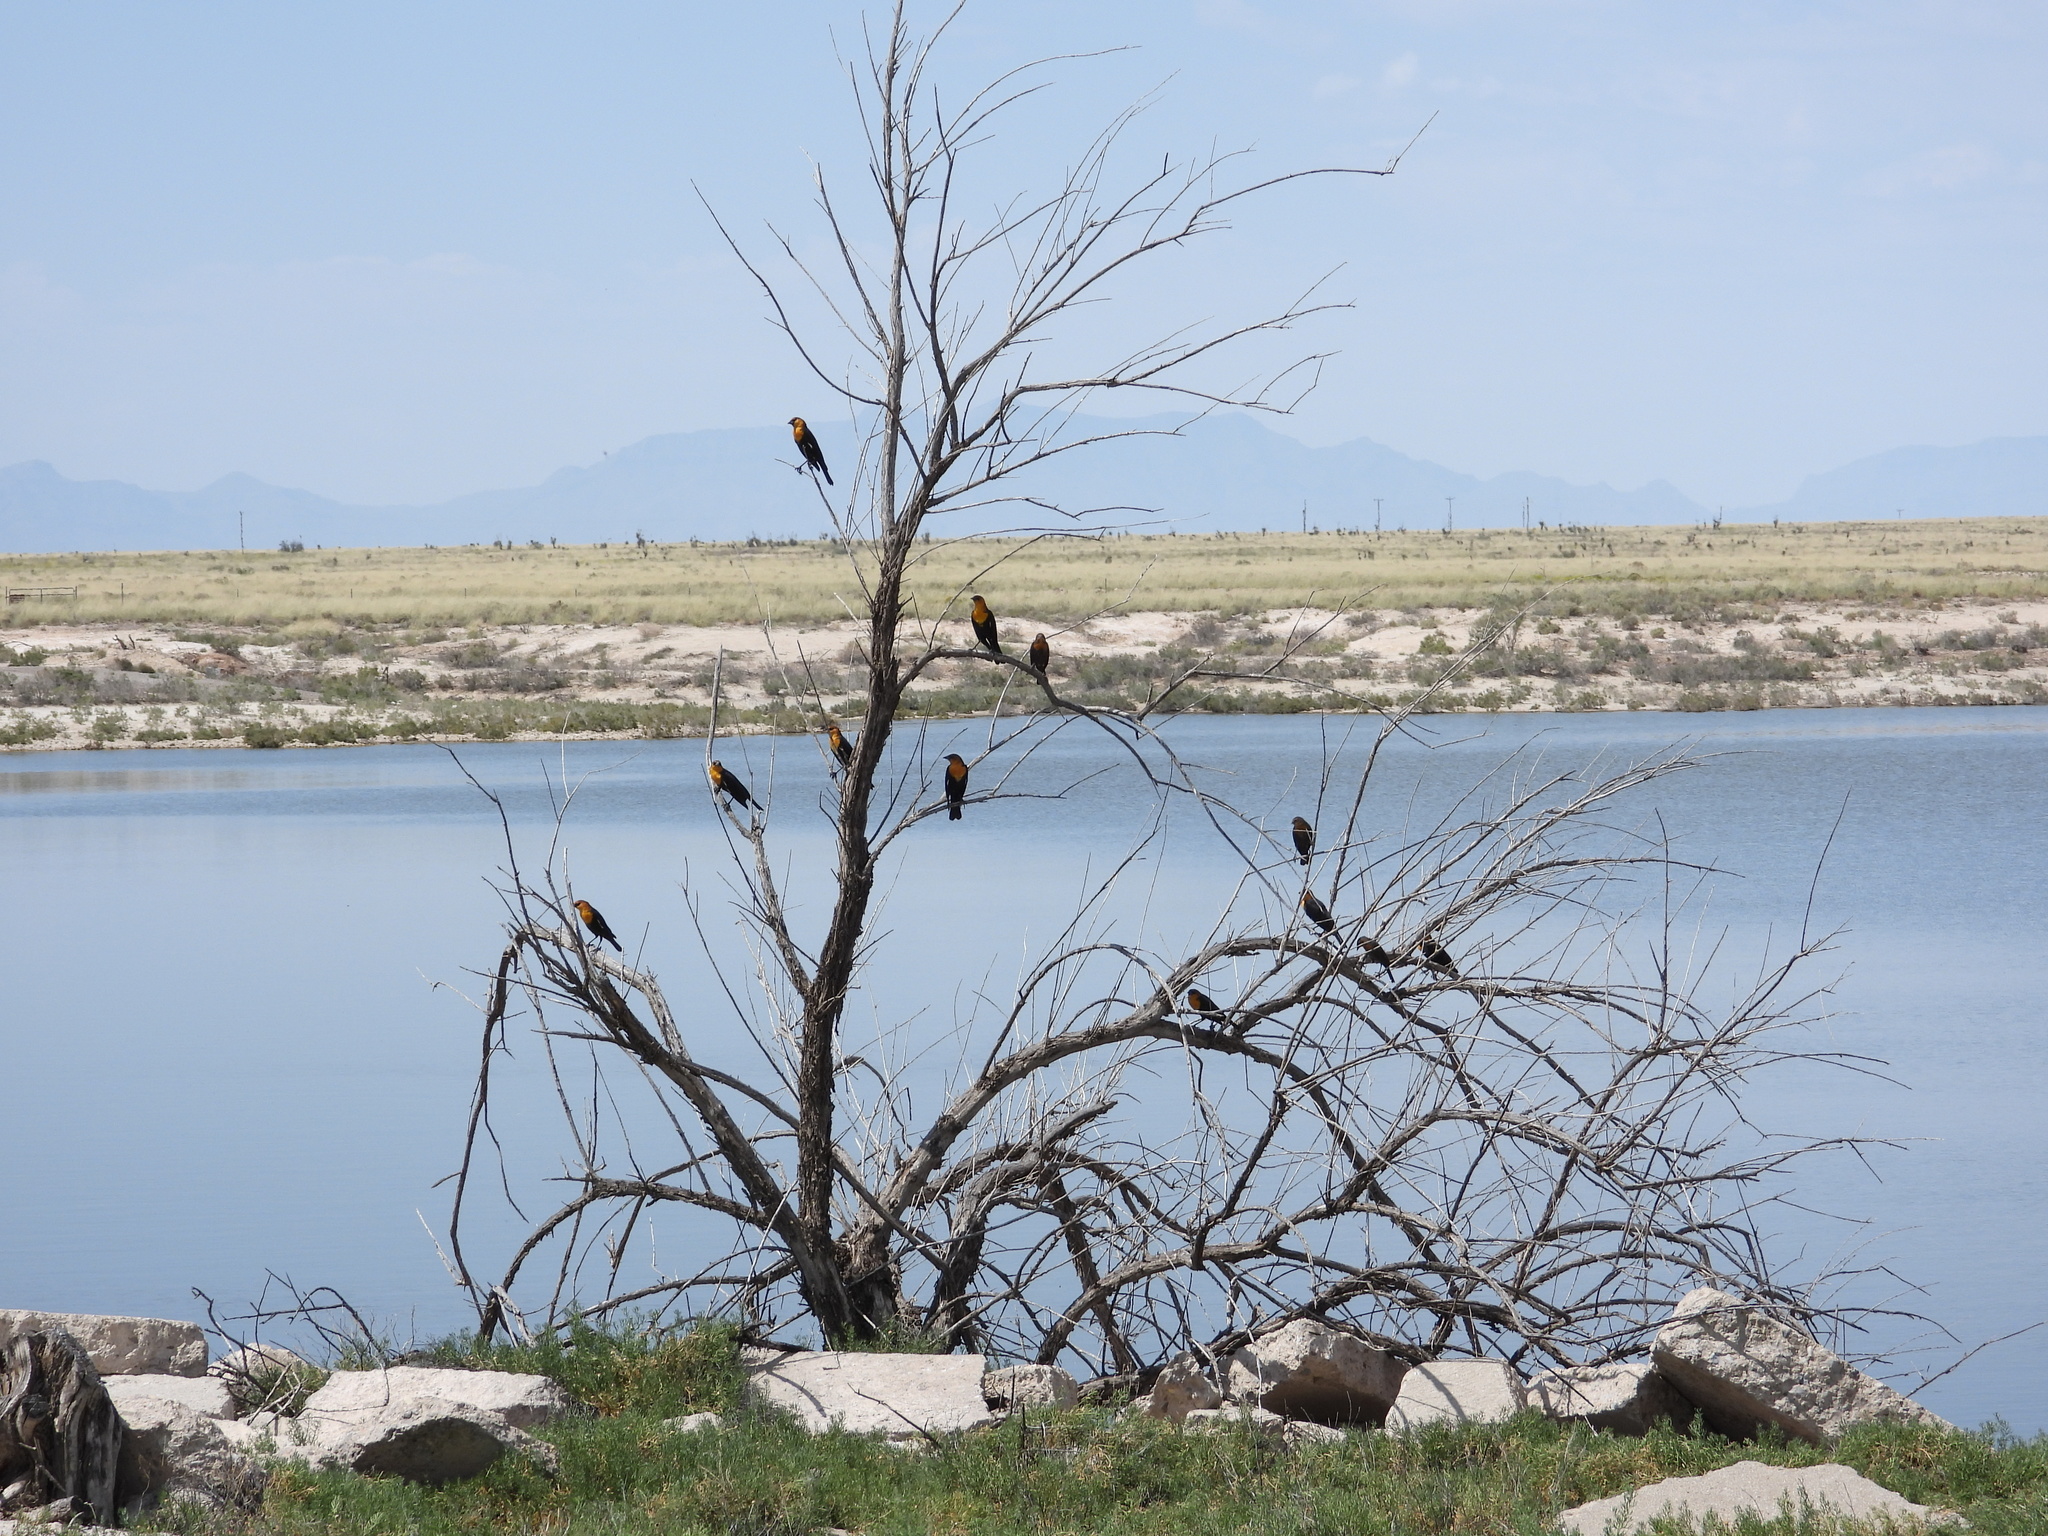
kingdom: Animalia
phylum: Chordata
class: Aves
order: Passeriformes
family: Icteridae
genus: Xanthocephalus
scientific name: Xanthocephalus xanthocephalus
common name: Yellow-headed blackbird
